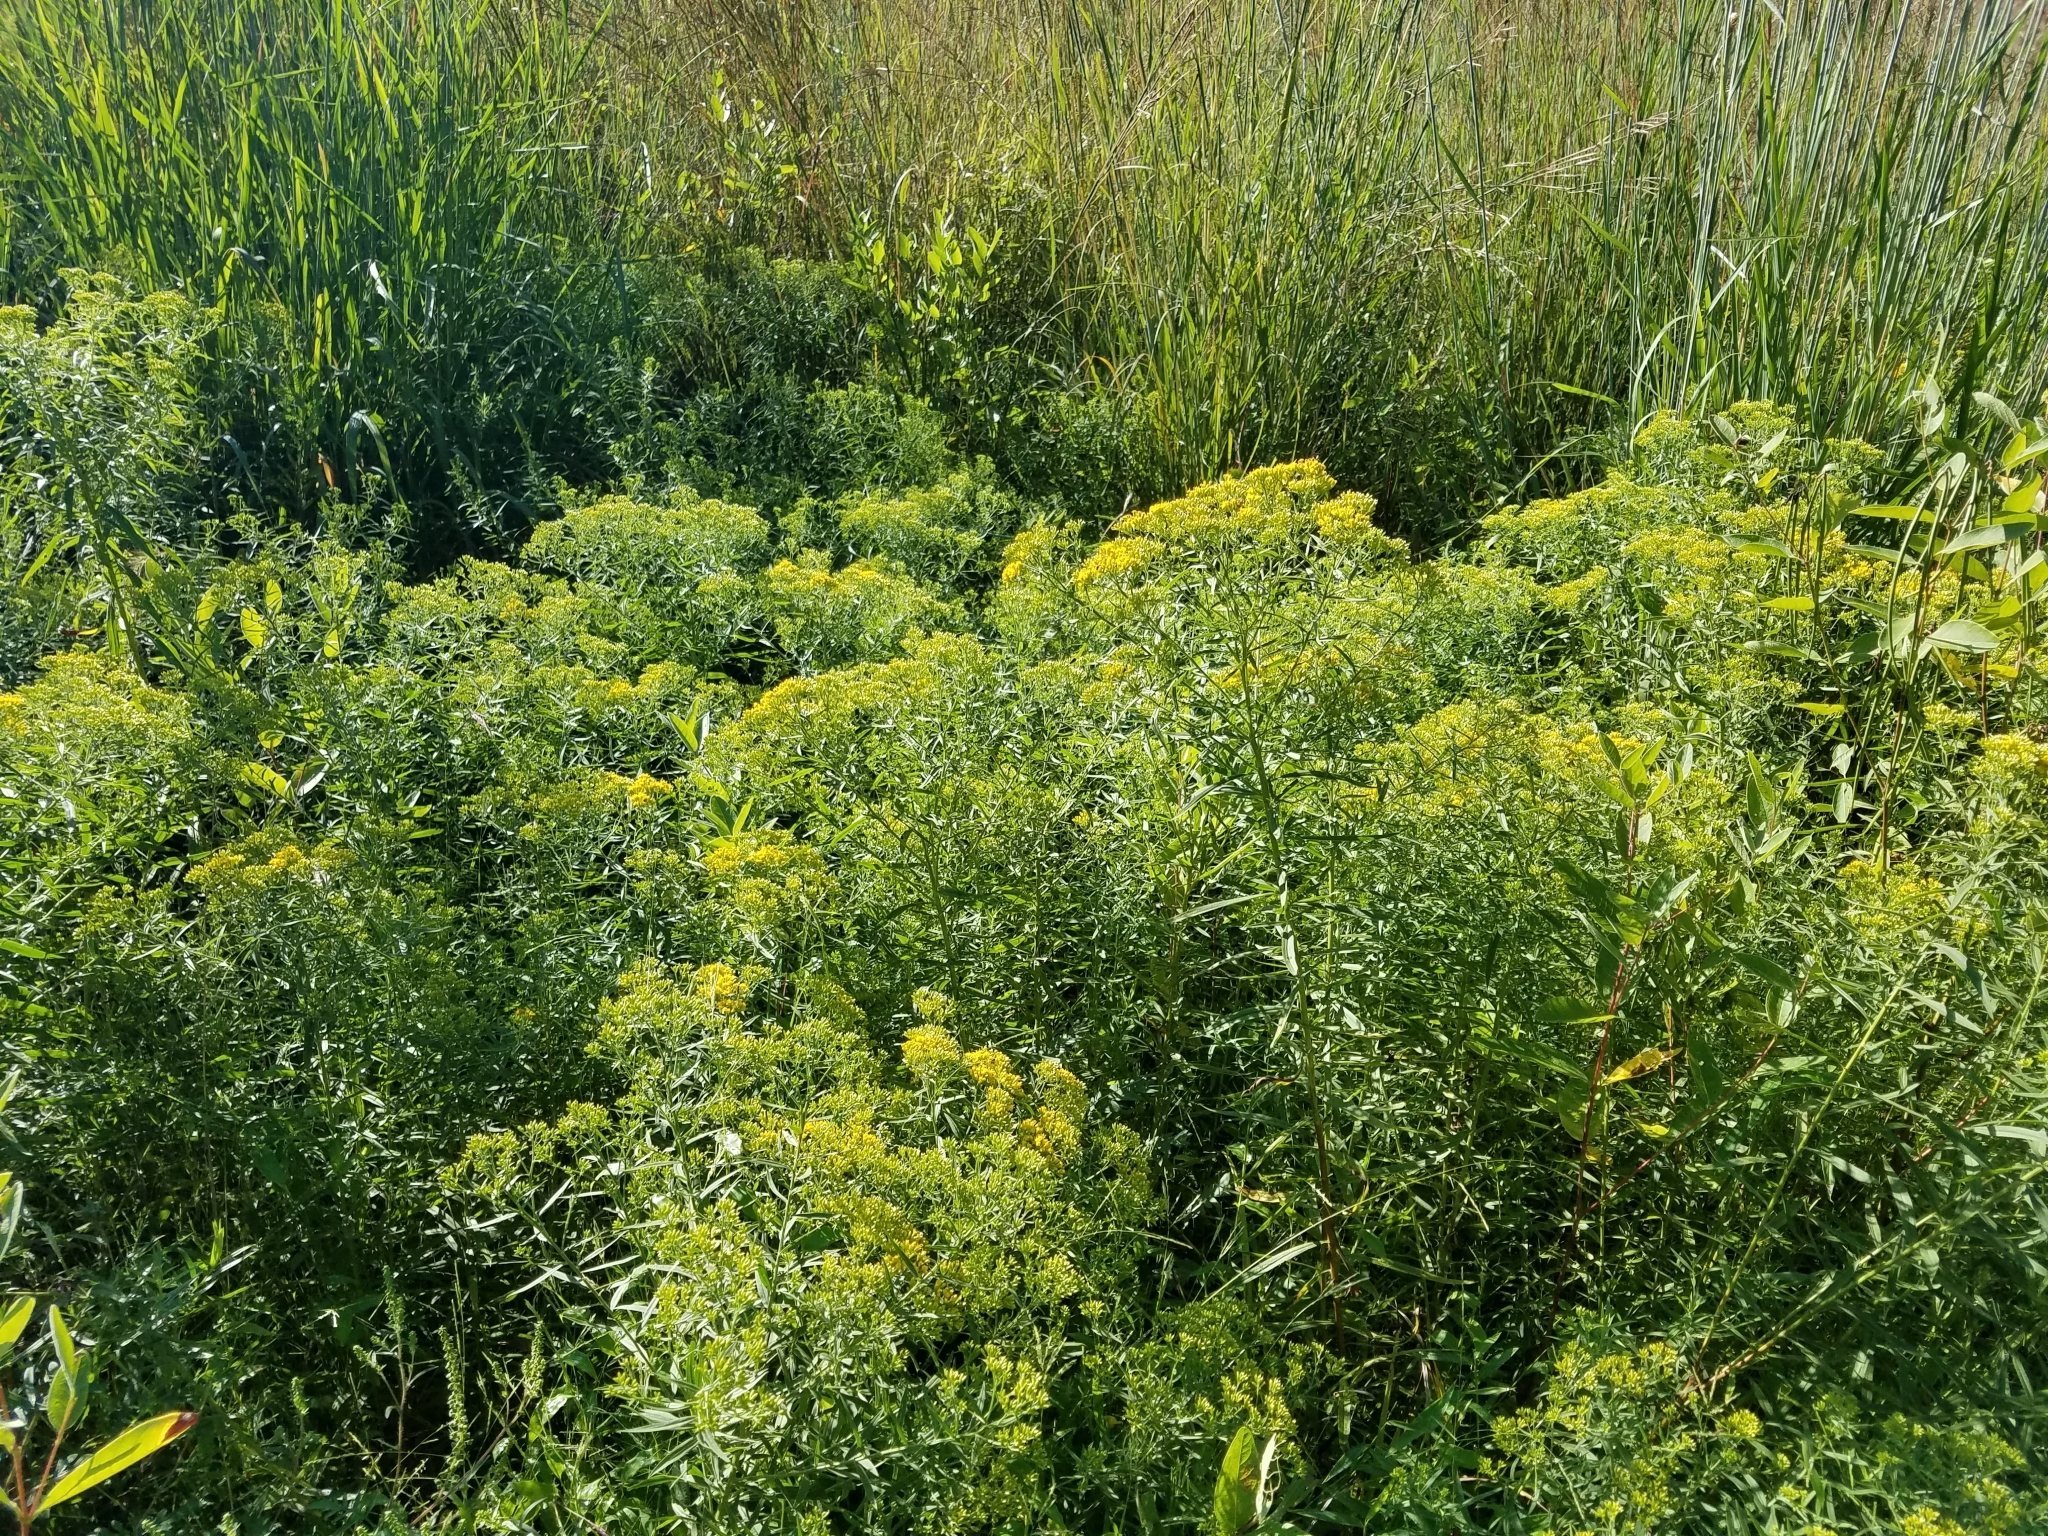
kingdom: Plantae
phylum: Tracheophyta
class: Magnoliopsida
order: Asterales
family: Asteraceae
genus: Euthamia
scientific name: Euthamia graminifolia
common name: Common goldentop
